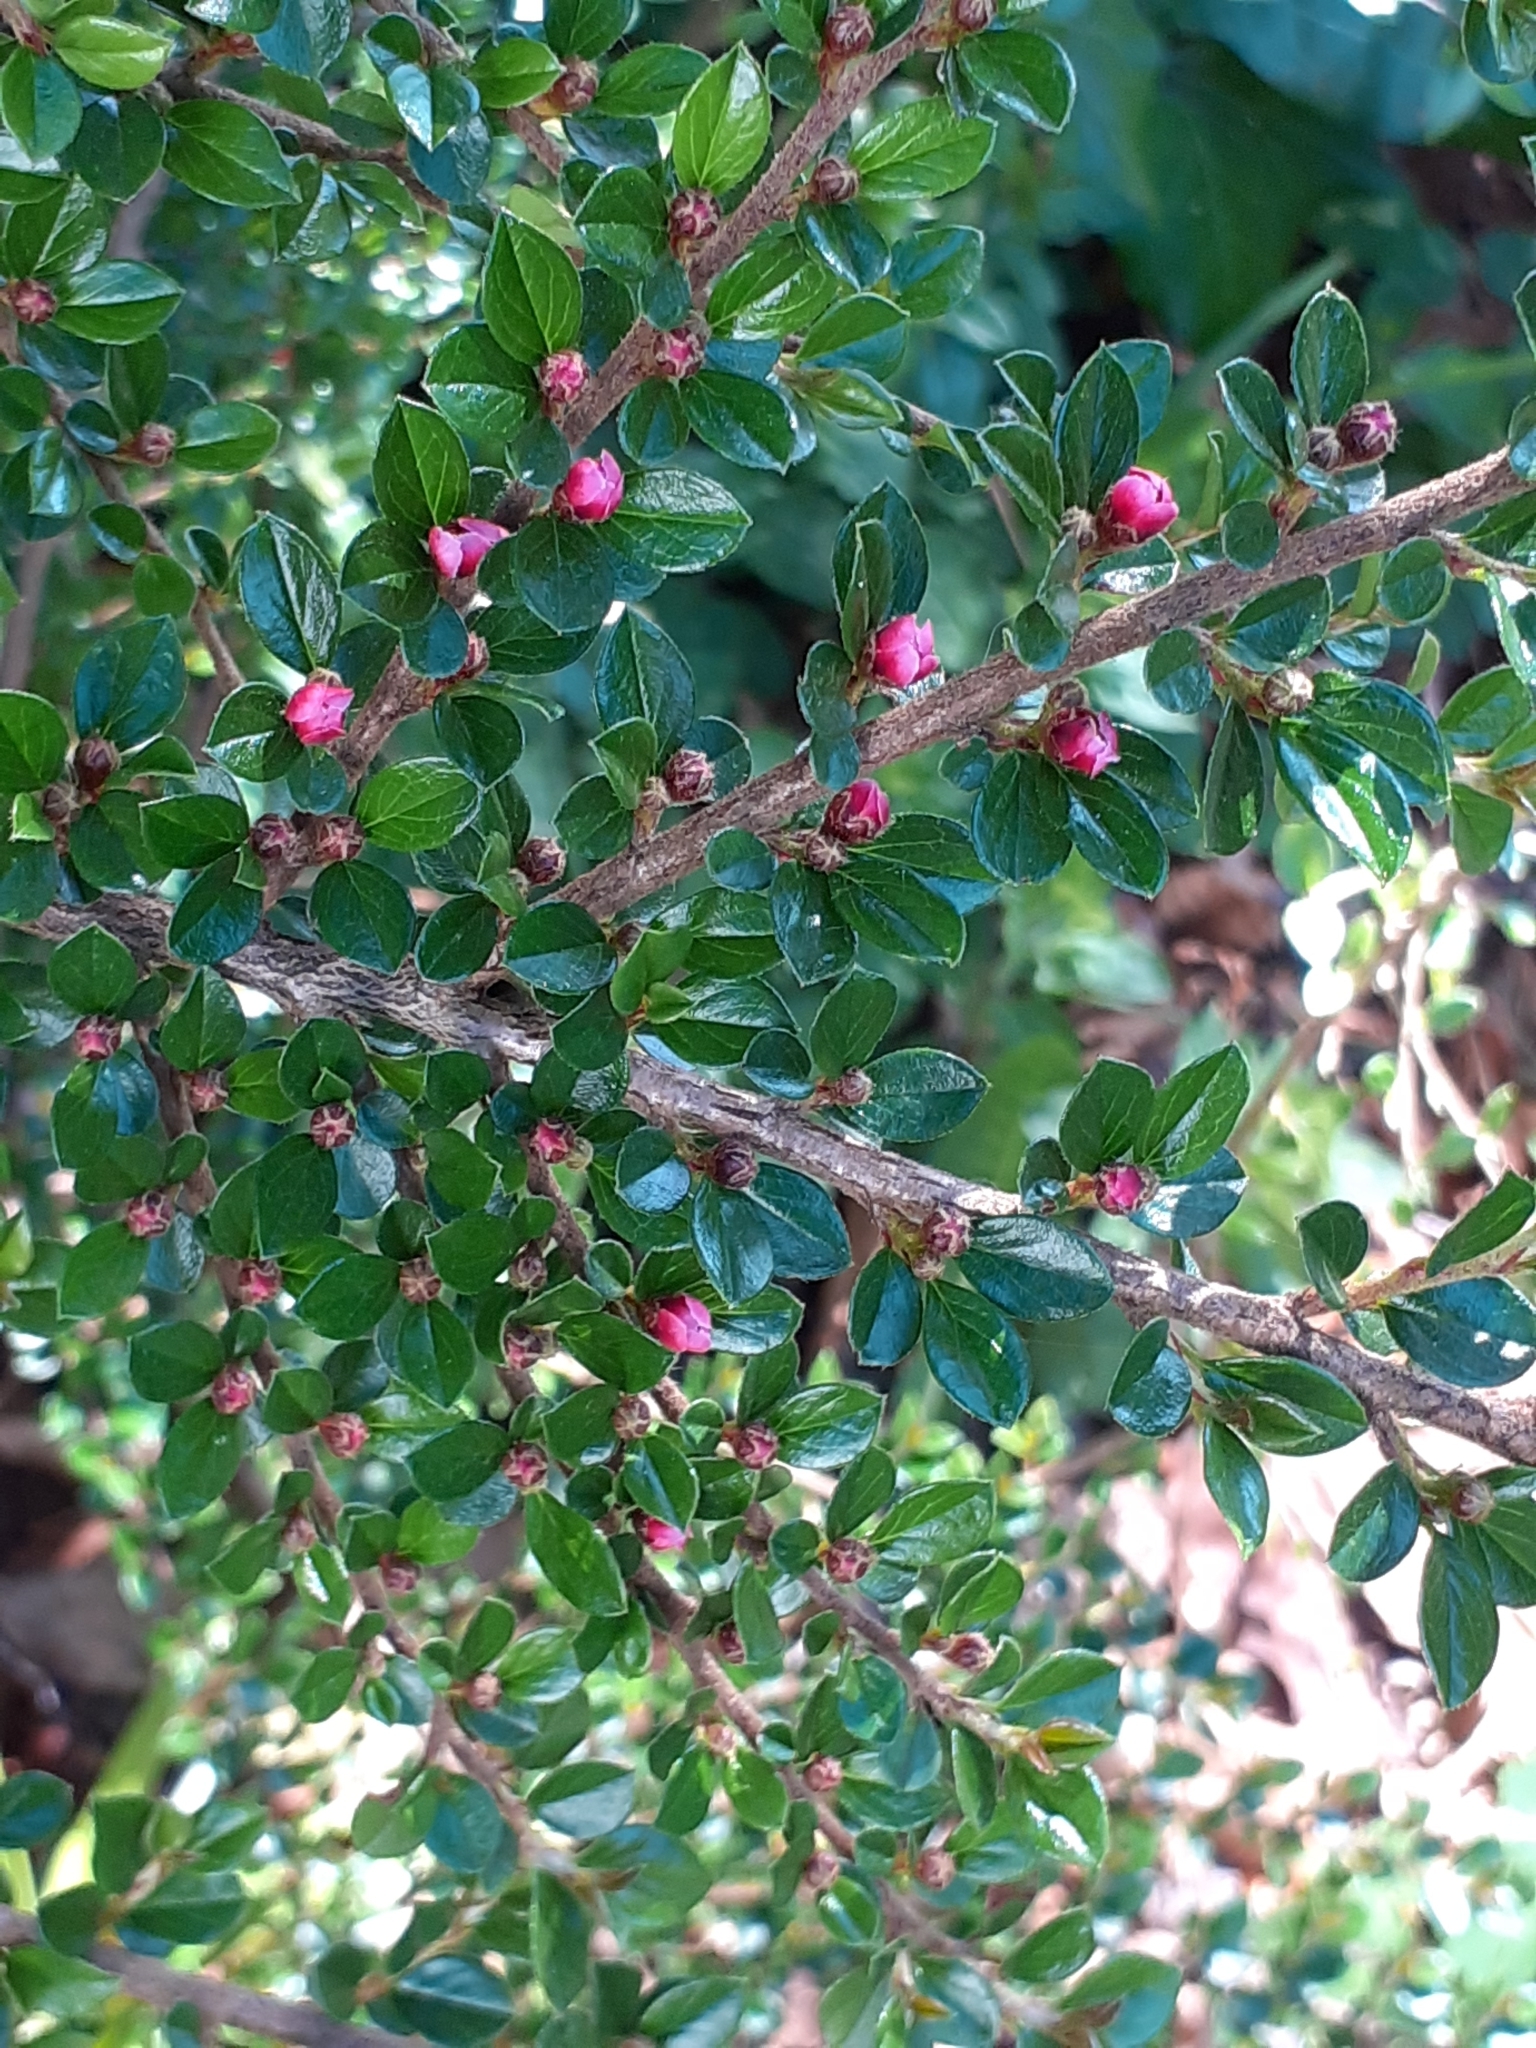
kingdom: Plantae
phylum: Tracheophyta
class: Magnoliopsida
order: Rosales
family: Rosaceae
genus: Cotoneaster
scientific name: Cotoneaster horizontalis
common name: Wall cotoneaster
